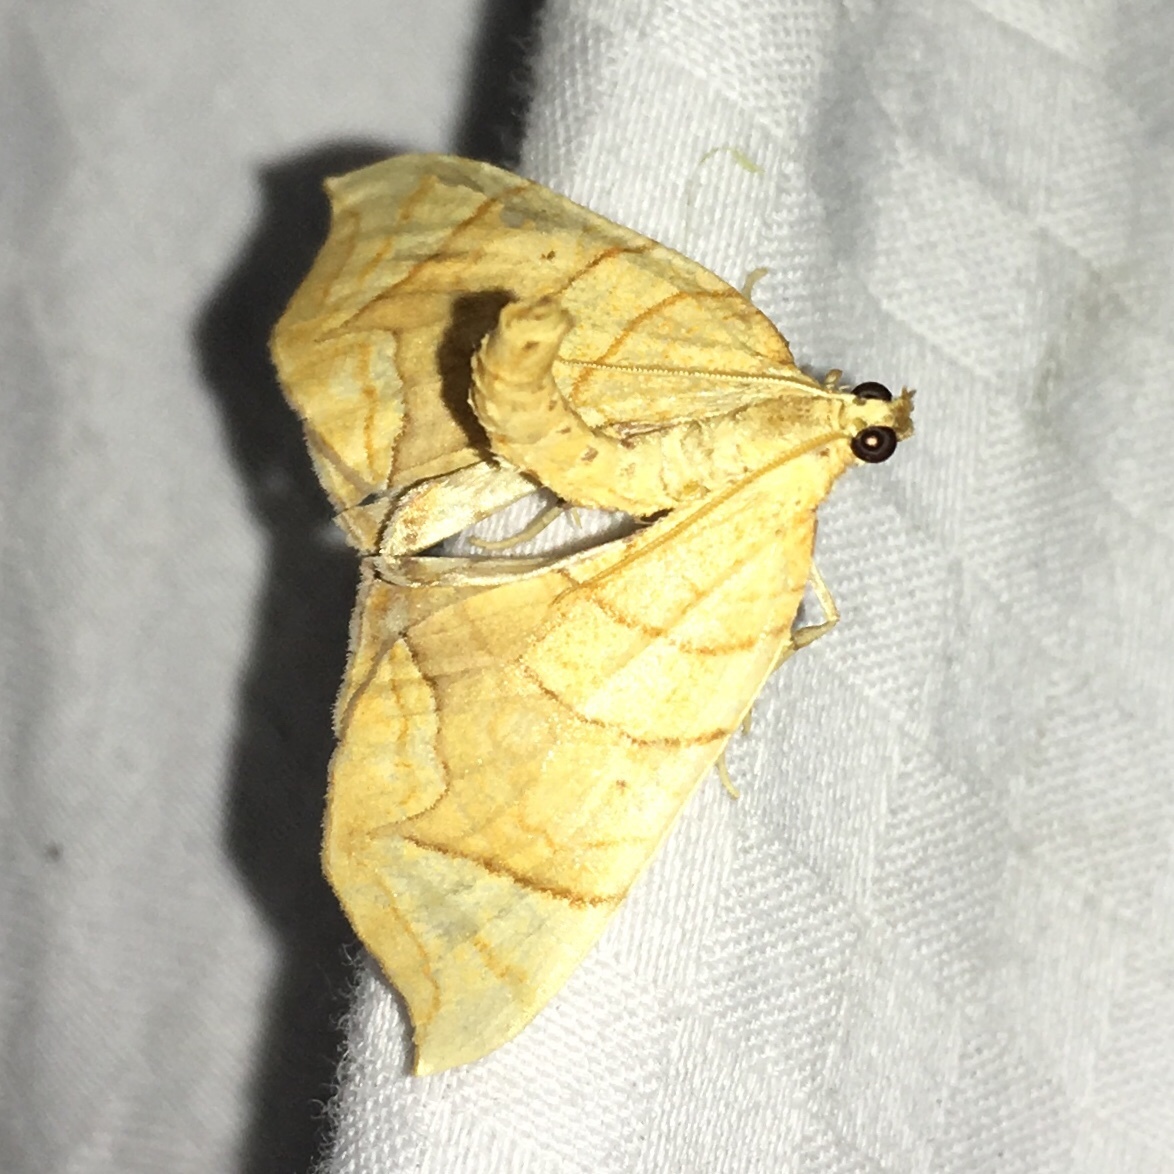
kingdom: Animalia
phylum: Arthropoda
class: Insecta
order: Lepidoptera
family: Geometridae
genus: Eulithis
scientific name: Eulithis
